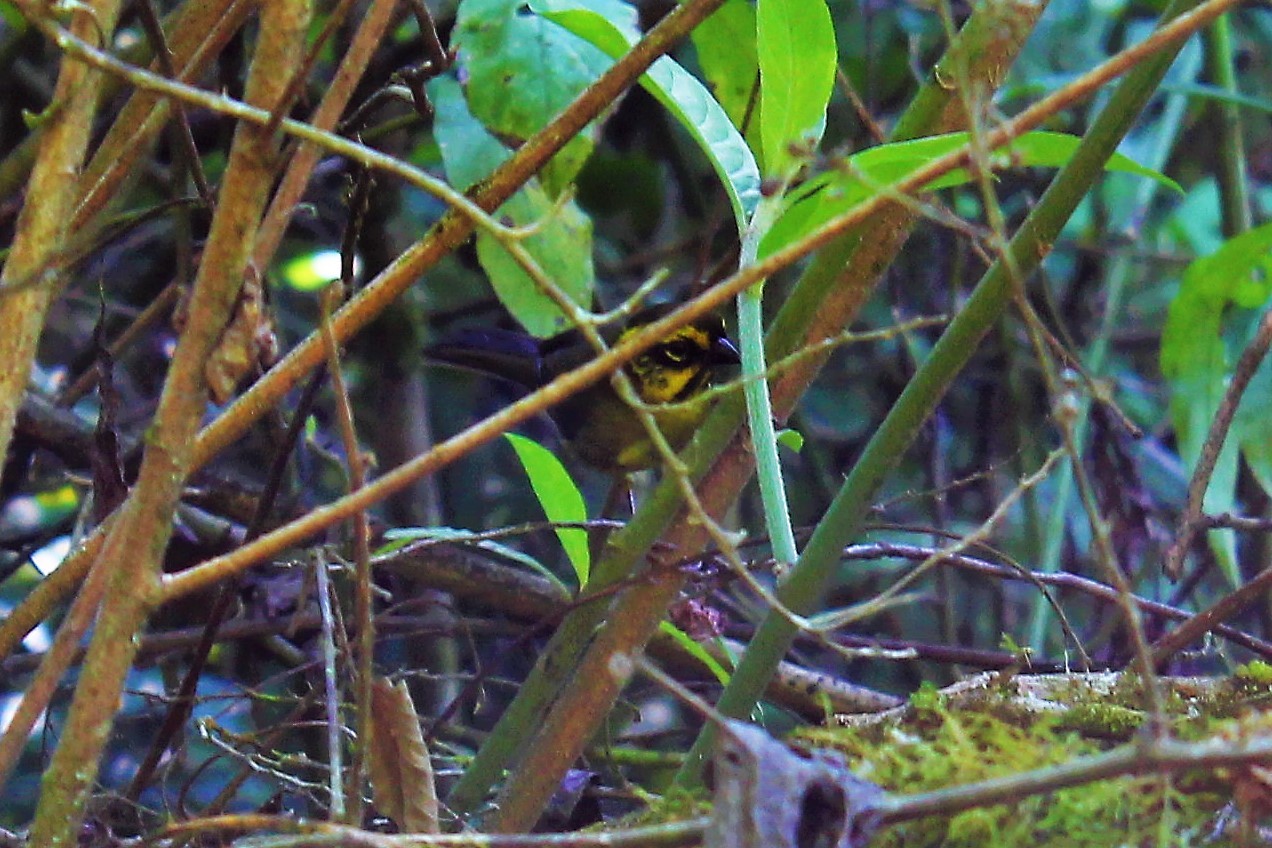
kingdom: Animalia
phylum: Chordata
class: Aves
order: Passeriformes
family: Passerellidae
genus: Atlapetes
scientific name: Atlapetes citrinellus
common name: Yellow-striped brushfinch
